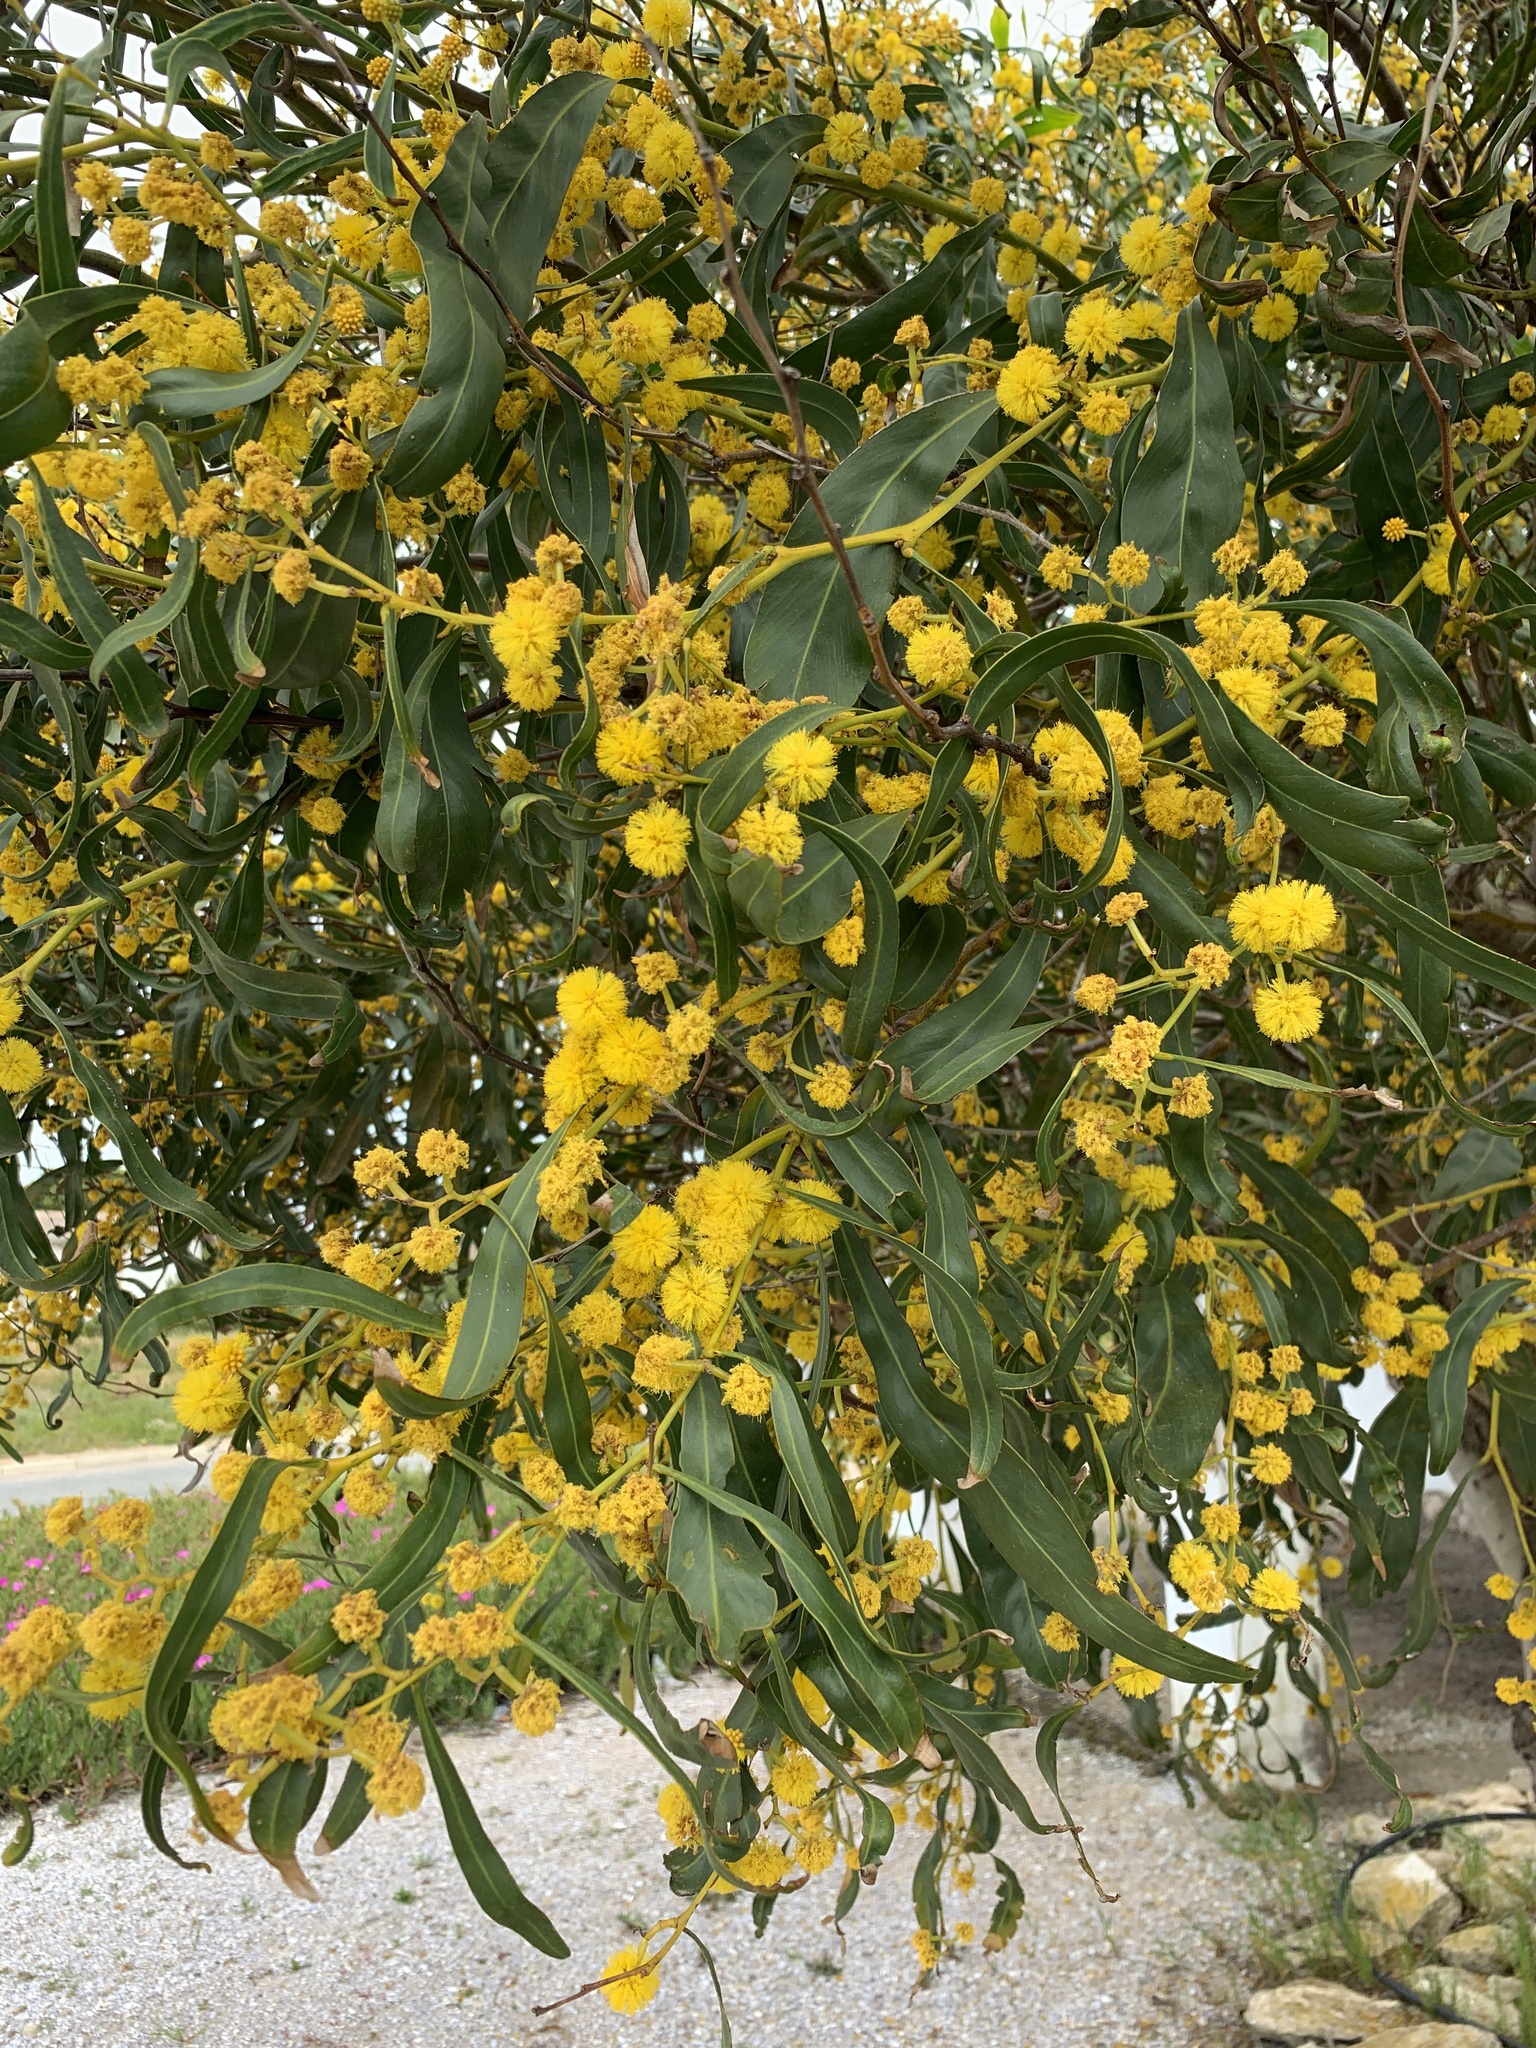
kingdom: Plantae
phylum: Tracheophyta
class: Magnoliopsida
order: Fabales
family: Fabaceae
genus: Acacia
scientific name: Acacia saligna
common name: Orange wattle
